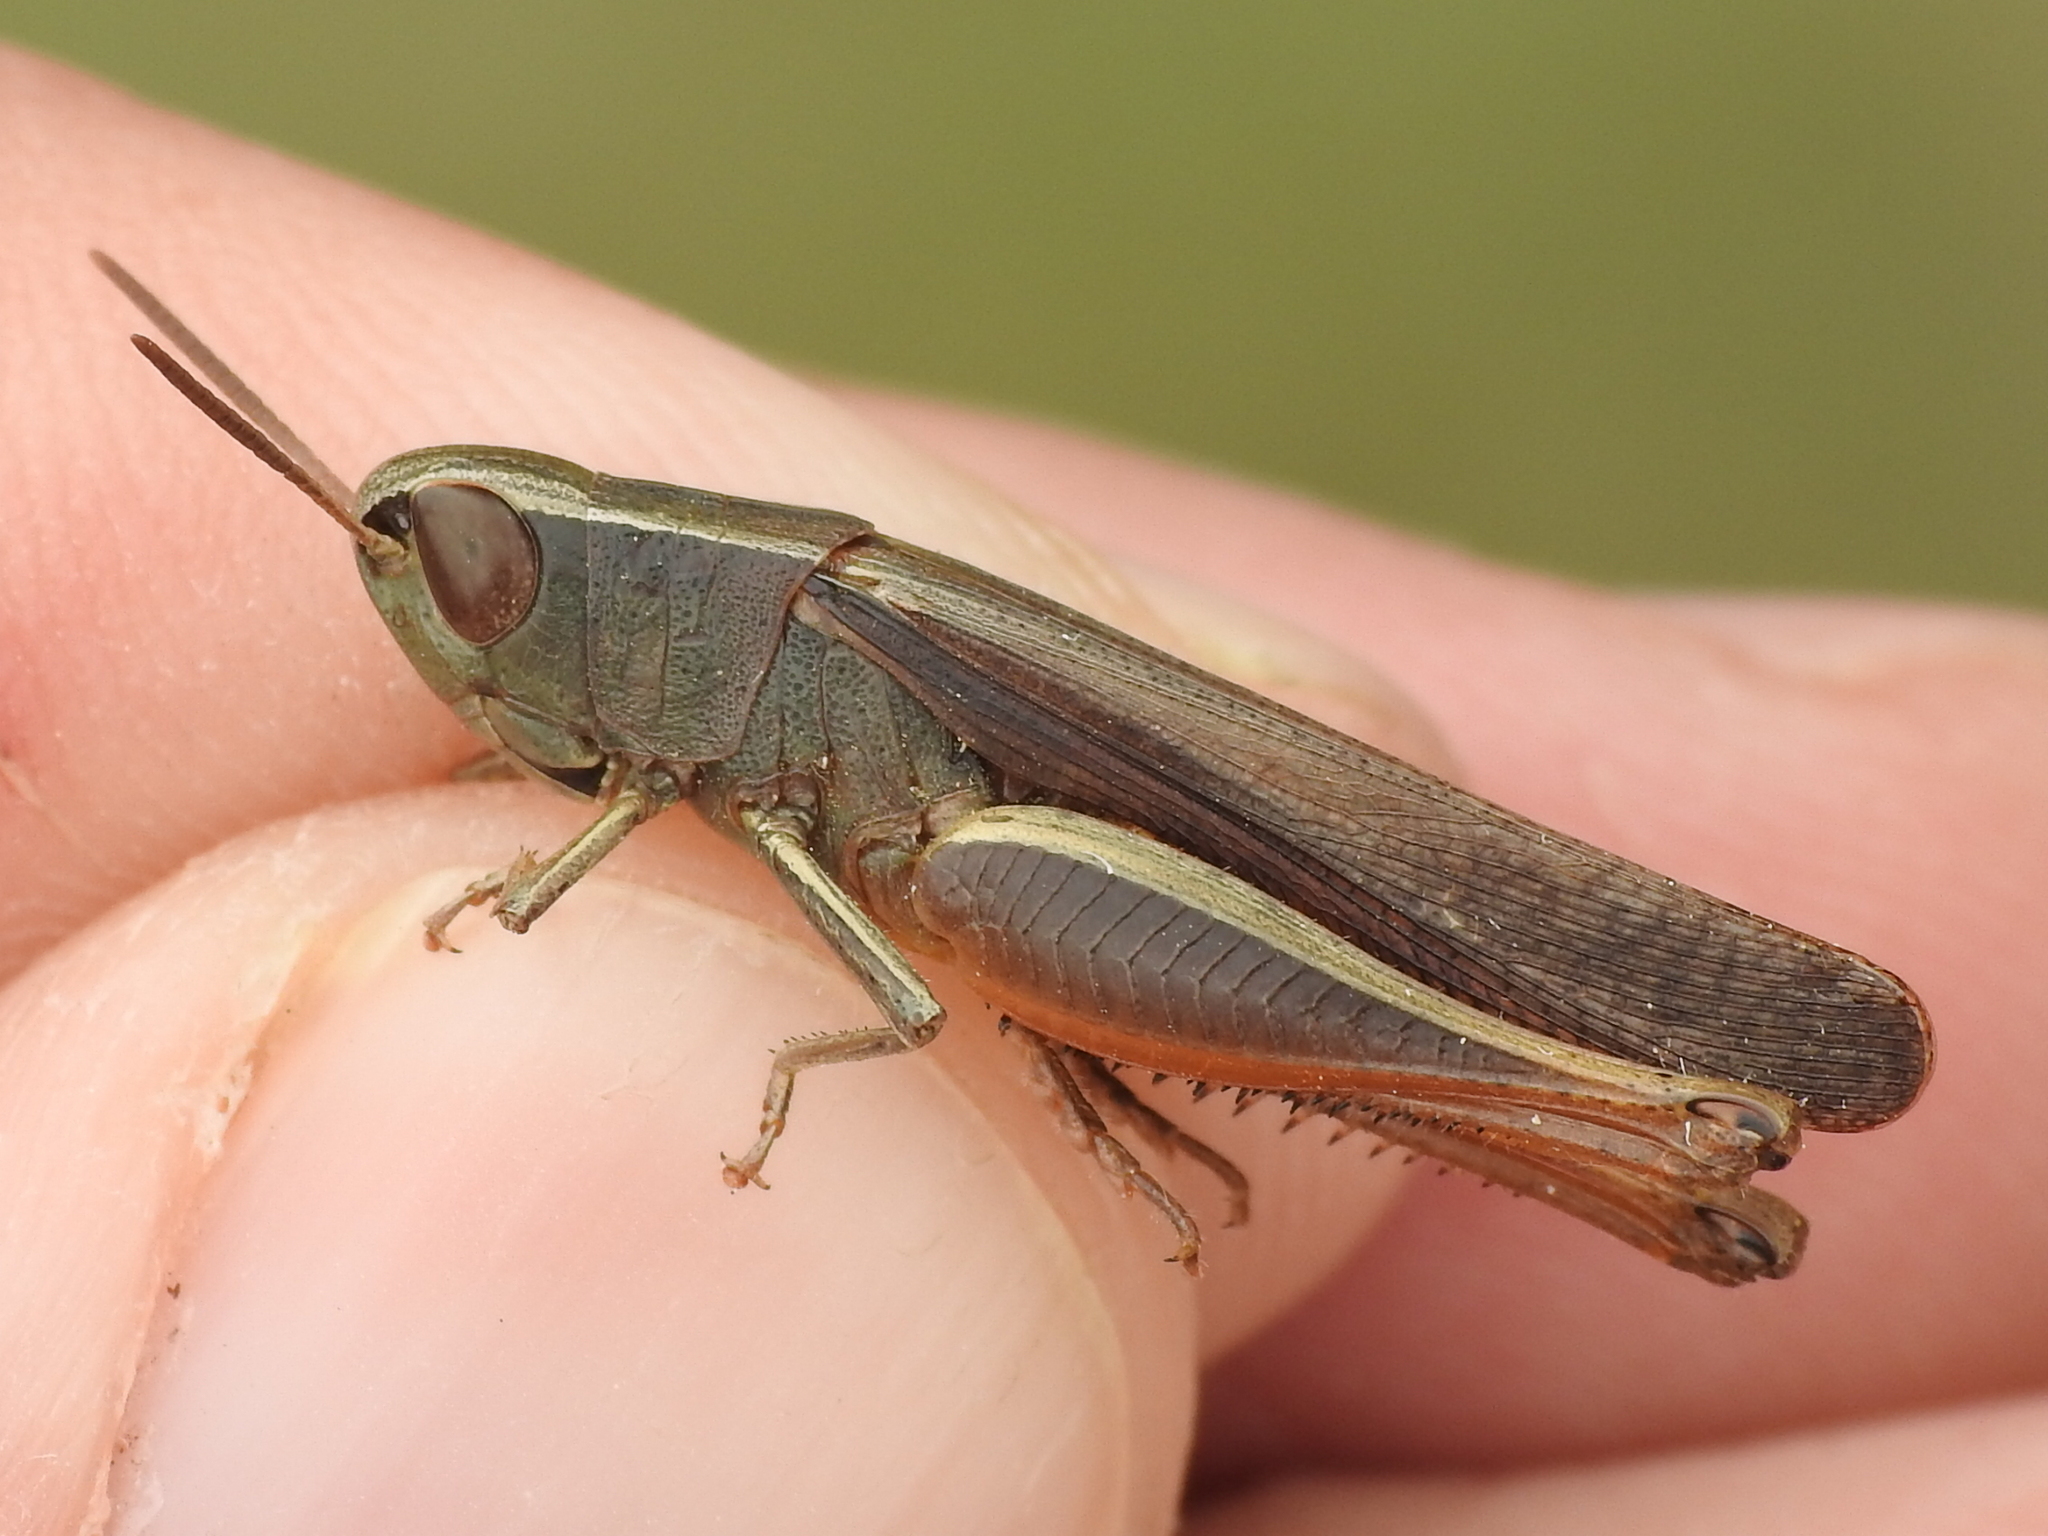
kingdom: Animalia
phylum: Arthropoda
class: Insecta
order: Orthoptera
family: Acrididae
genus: Amblytropidia
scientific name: Amblytropidia mysteca
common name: Brown winter grasshopper
